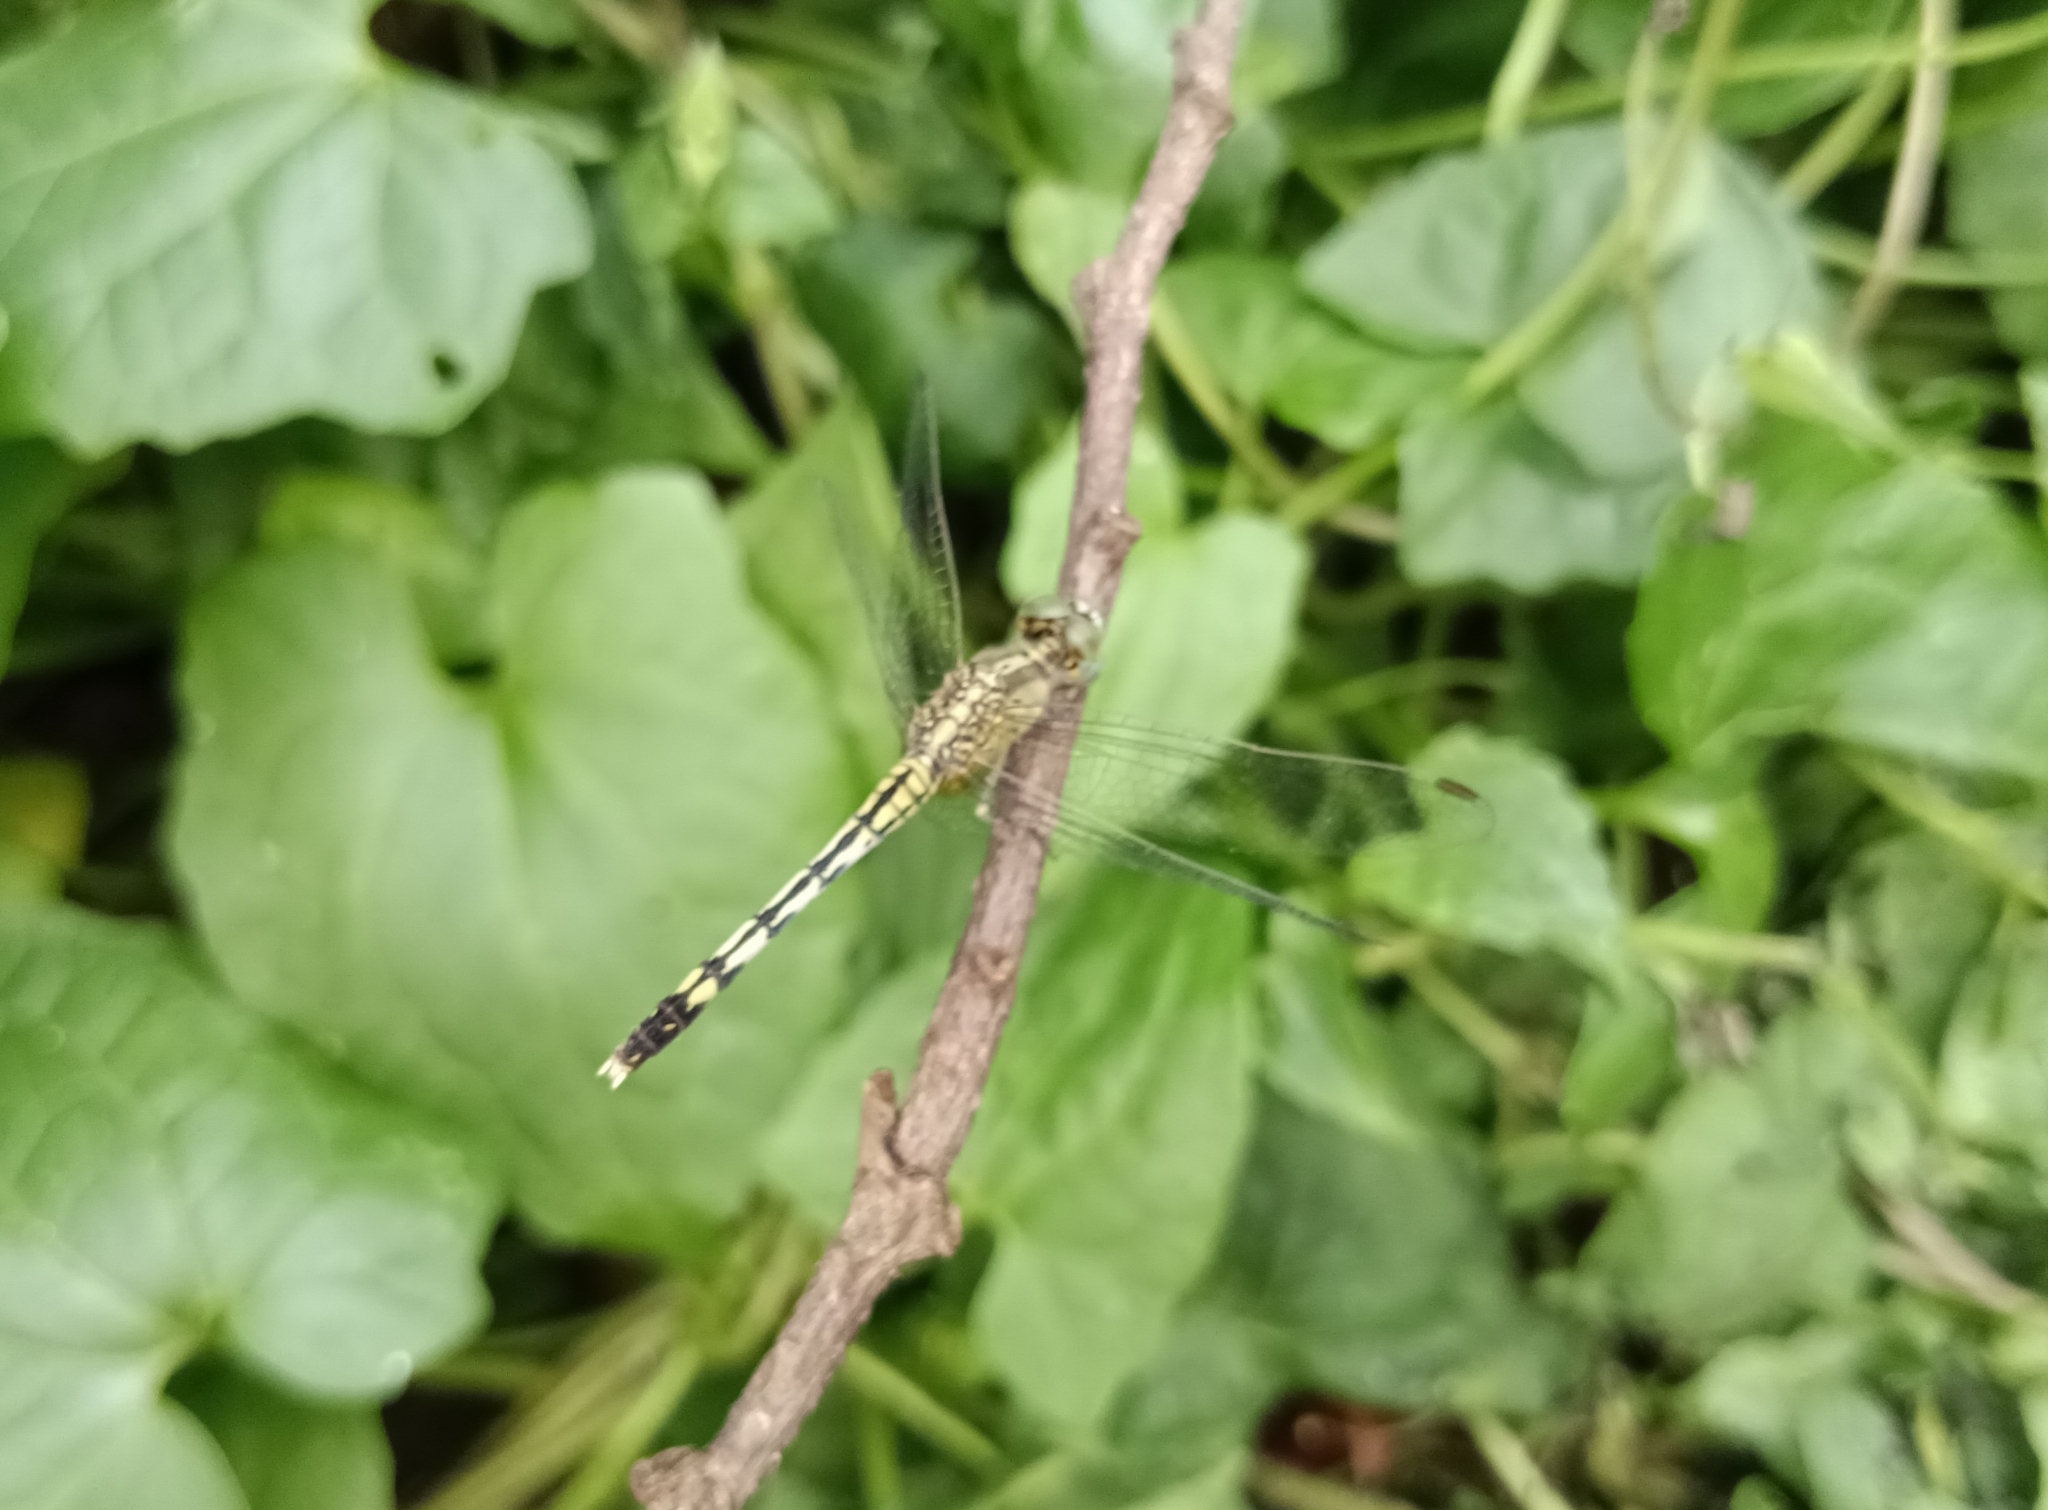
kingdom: Animalia
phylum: Arthropoda
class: Insecta
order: Odonata
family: Libellulidae
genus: Diplacodes
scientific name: Diplacodes trivialis
